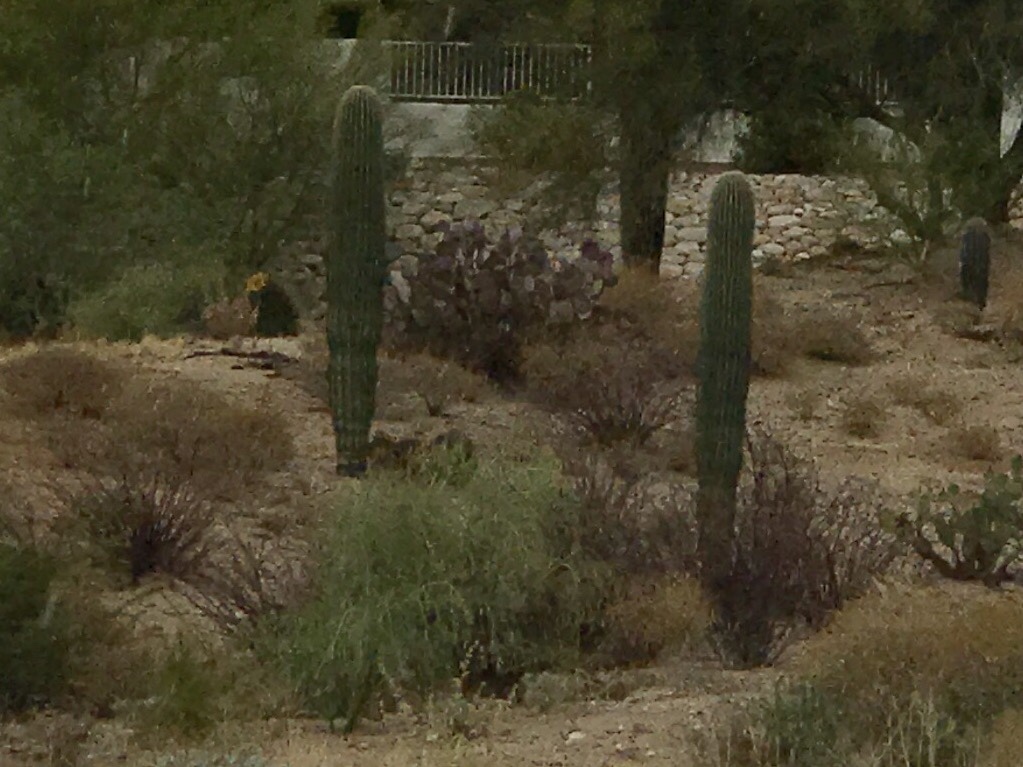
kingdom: Plantae
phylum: Tracheophyta
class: Magnoliopsida
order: Caryophyllales
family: Cactaceae
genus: Carnegiea
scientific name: Carnegiea gigantea
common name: Saguaro
